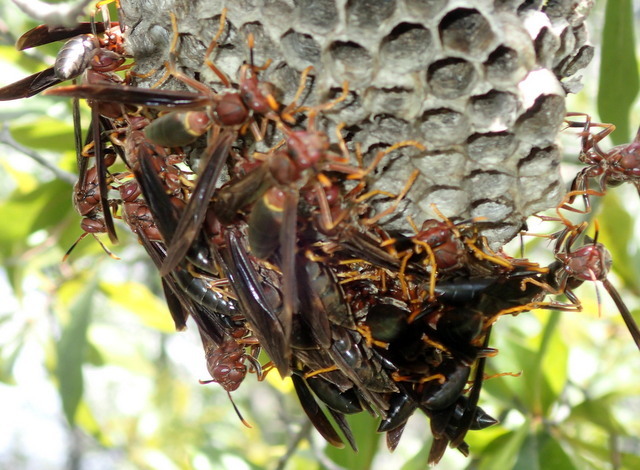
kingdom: Animalia
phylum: Arthropoda
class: Insecta
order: Hymenoptera
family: Eumenidae
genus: Polistes
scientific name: Polistes annularis
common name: Ringed paper wasp
